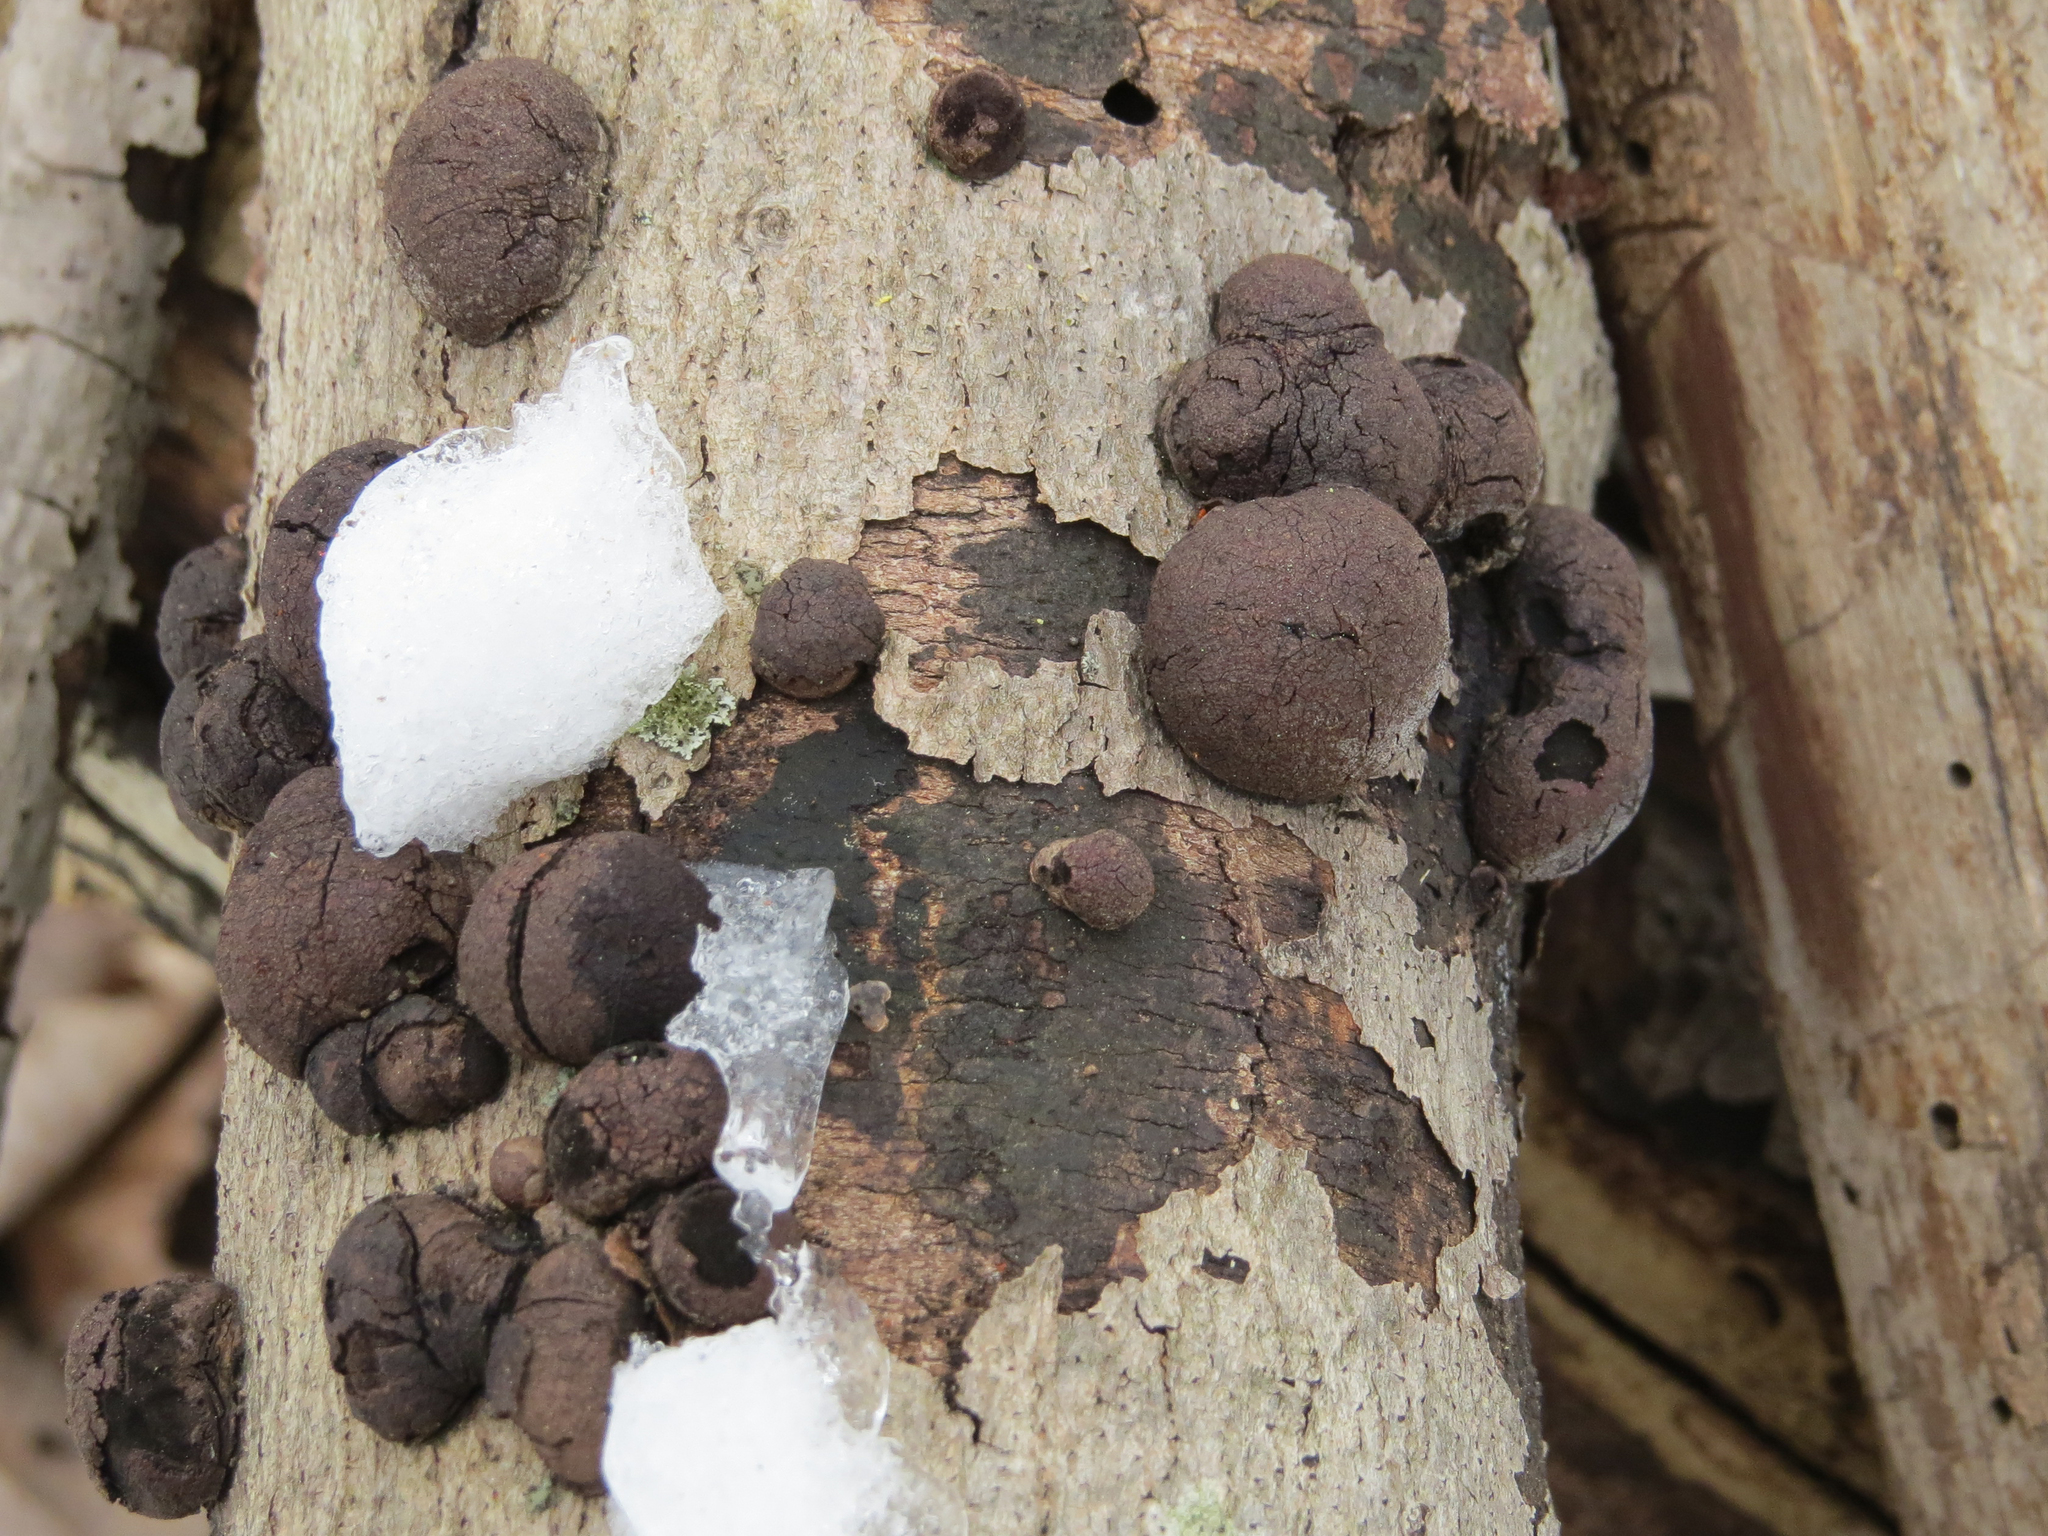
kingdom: Fungi
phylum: Ascomycota
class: Sordariomycetes
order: Xylariales
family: Hypoxylaceae
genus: Daldinia
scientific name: Daldinia childiae
